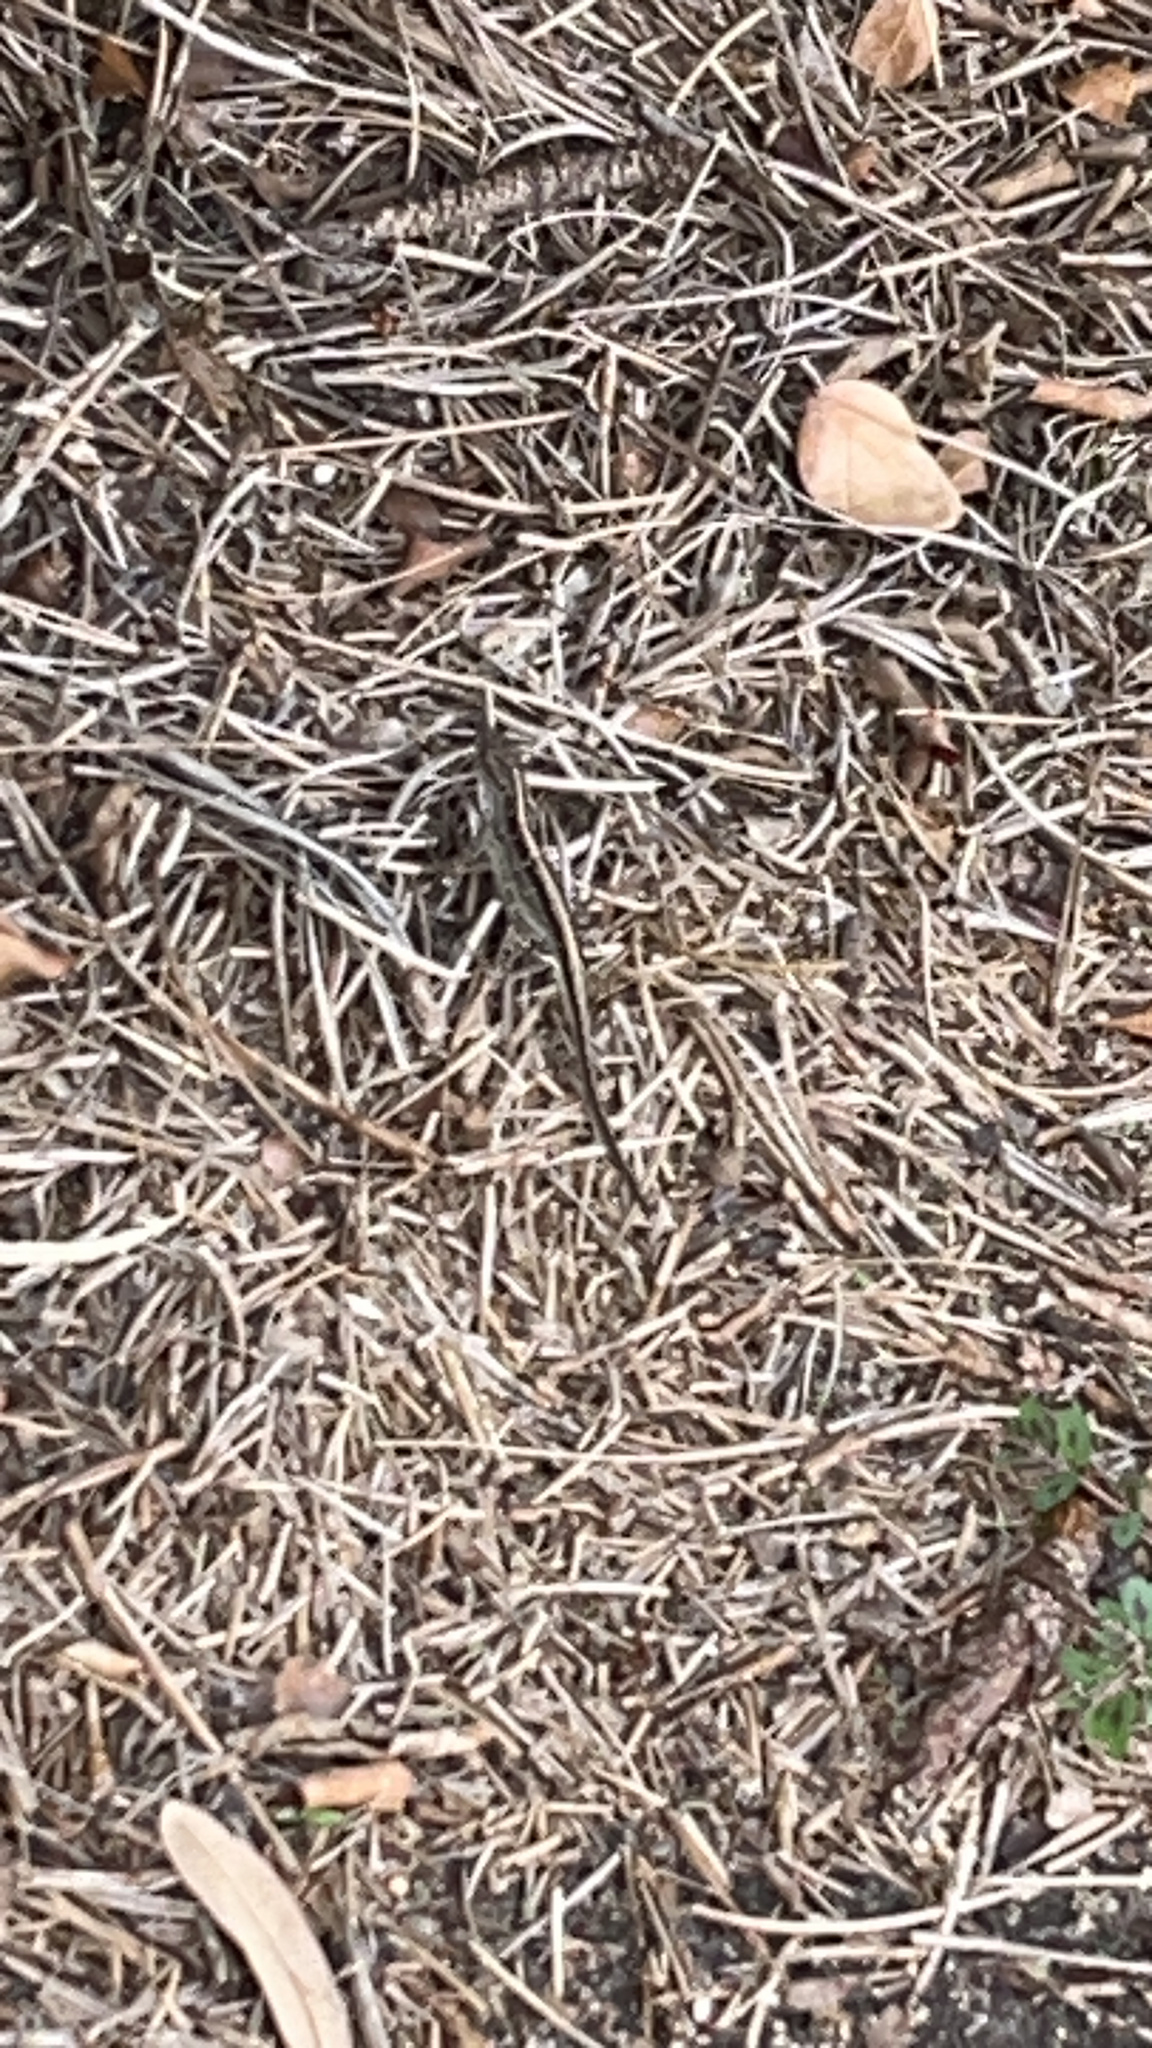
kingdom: Animalia
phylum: Chordata
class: Squamata
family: Dactyloidae
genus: Anolis
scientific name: Anolis sagrei
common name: Brown anole
